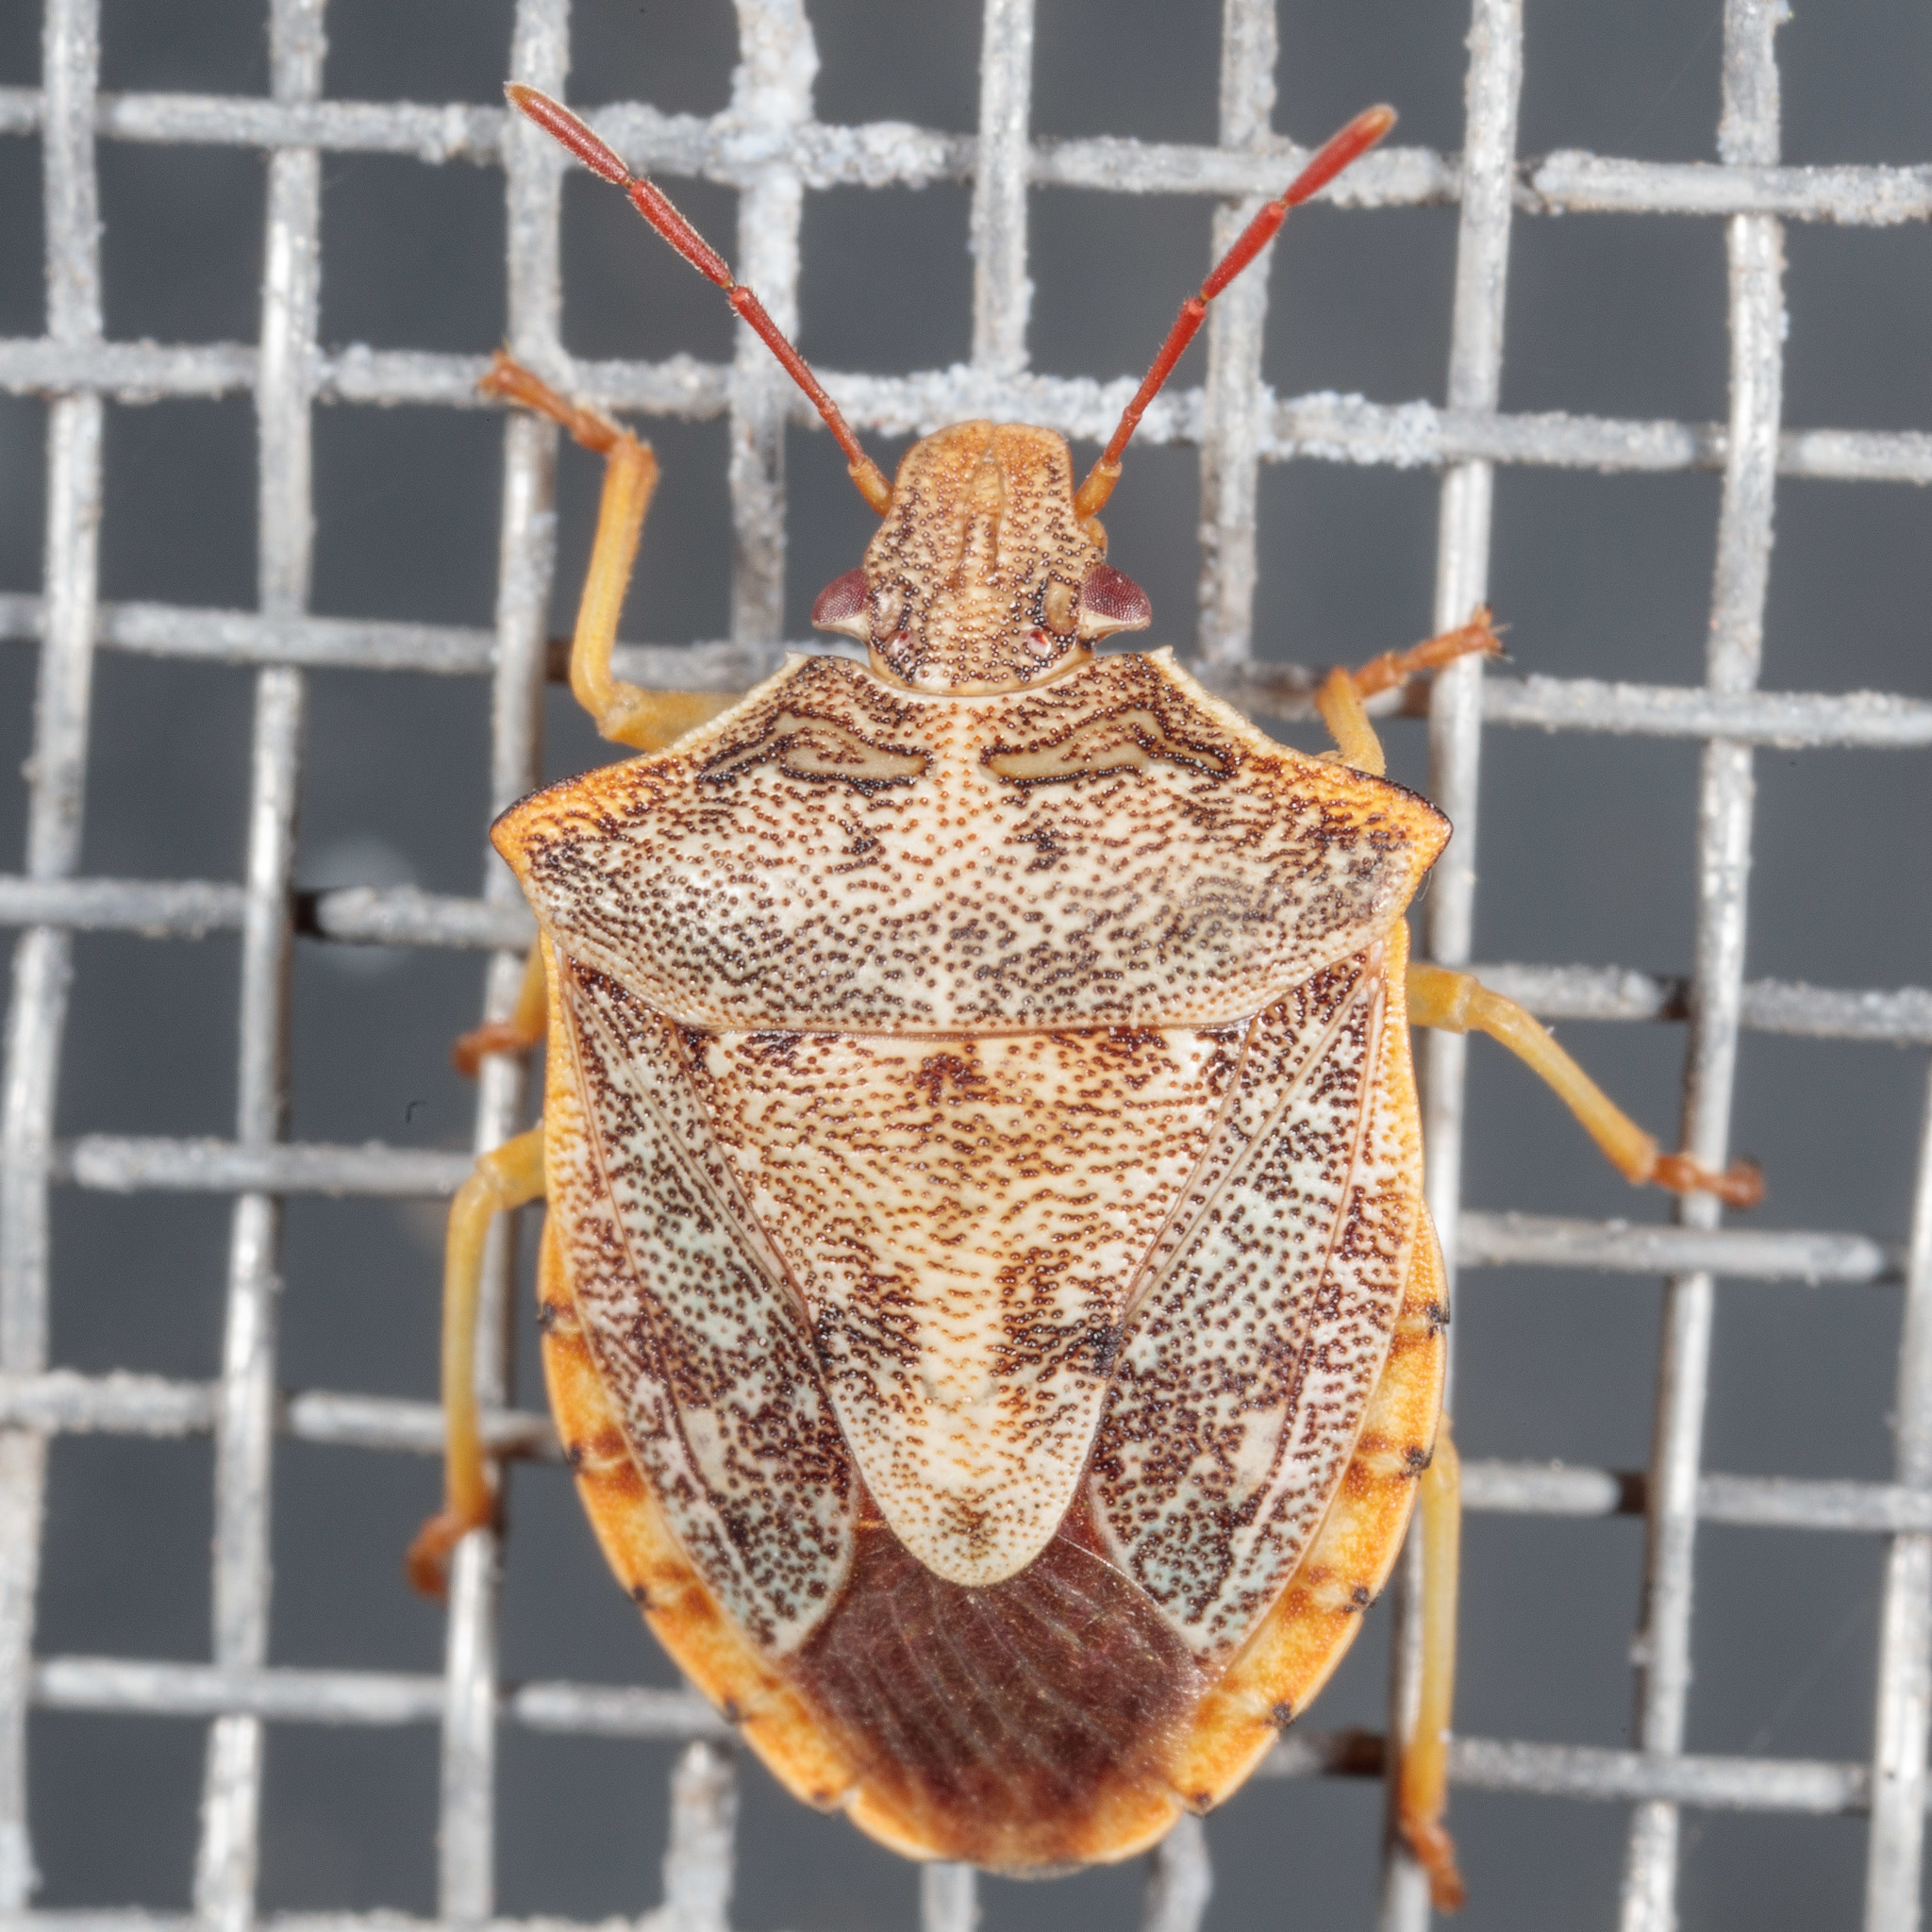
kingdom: Animalia
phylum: Arthropoda
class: Insecta
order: Hemiptera
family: Pentatomidae
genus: Dendrocoris
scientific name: Dendrocoris humeralis
